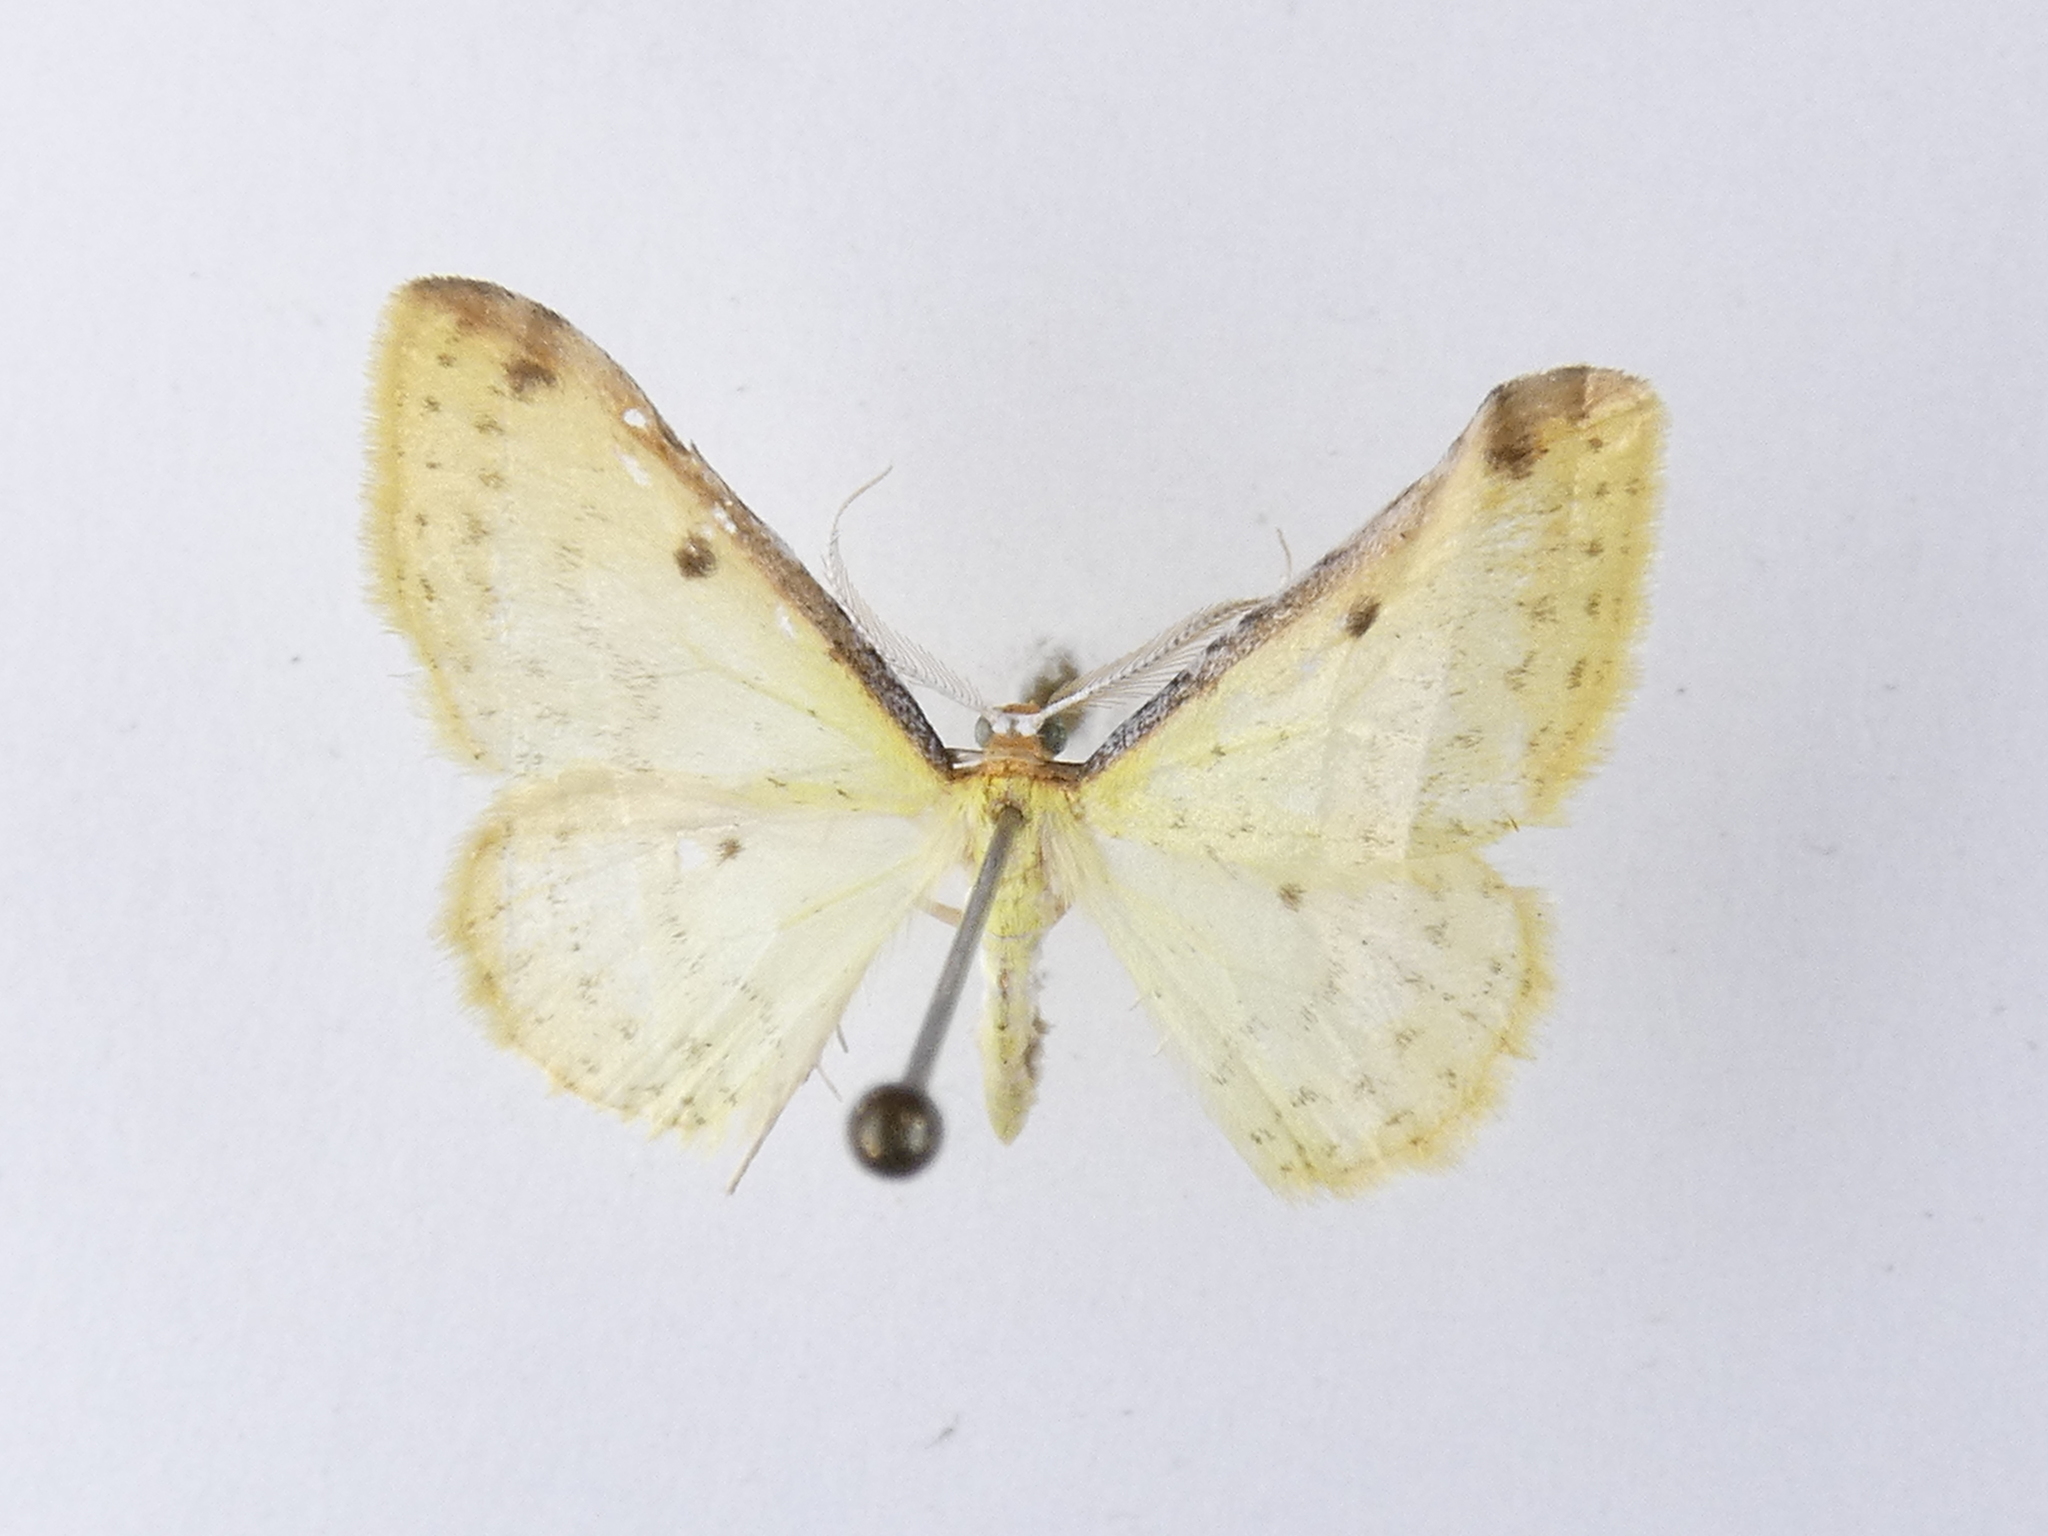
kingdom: Animalia
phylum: Arthropoda
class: Insecta
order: Lepidoptera
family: Geometridae
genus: Epiphryne
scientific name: Epiphryne undosata
